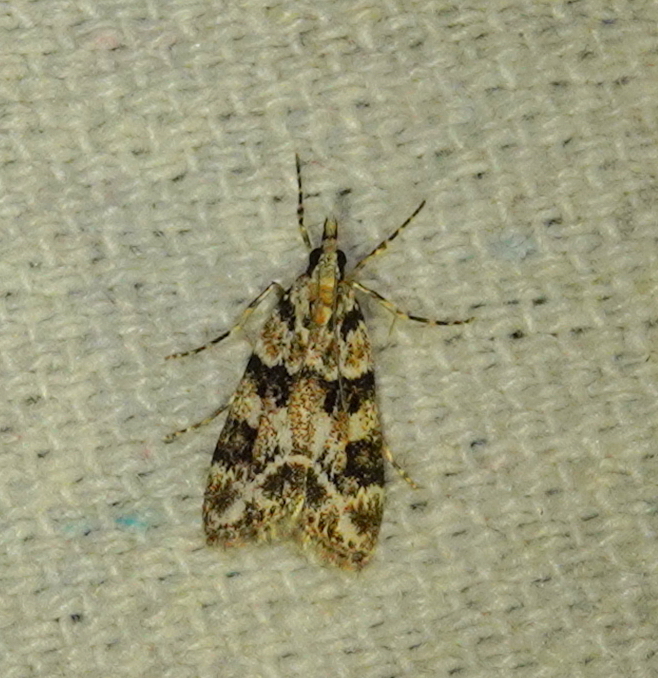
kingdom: Animalia
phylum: Arthropoda
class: Insecta
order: Lepidoptera
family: Crambidae
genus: Eudonia
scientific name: Eudonia delunella
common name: Pied grey
